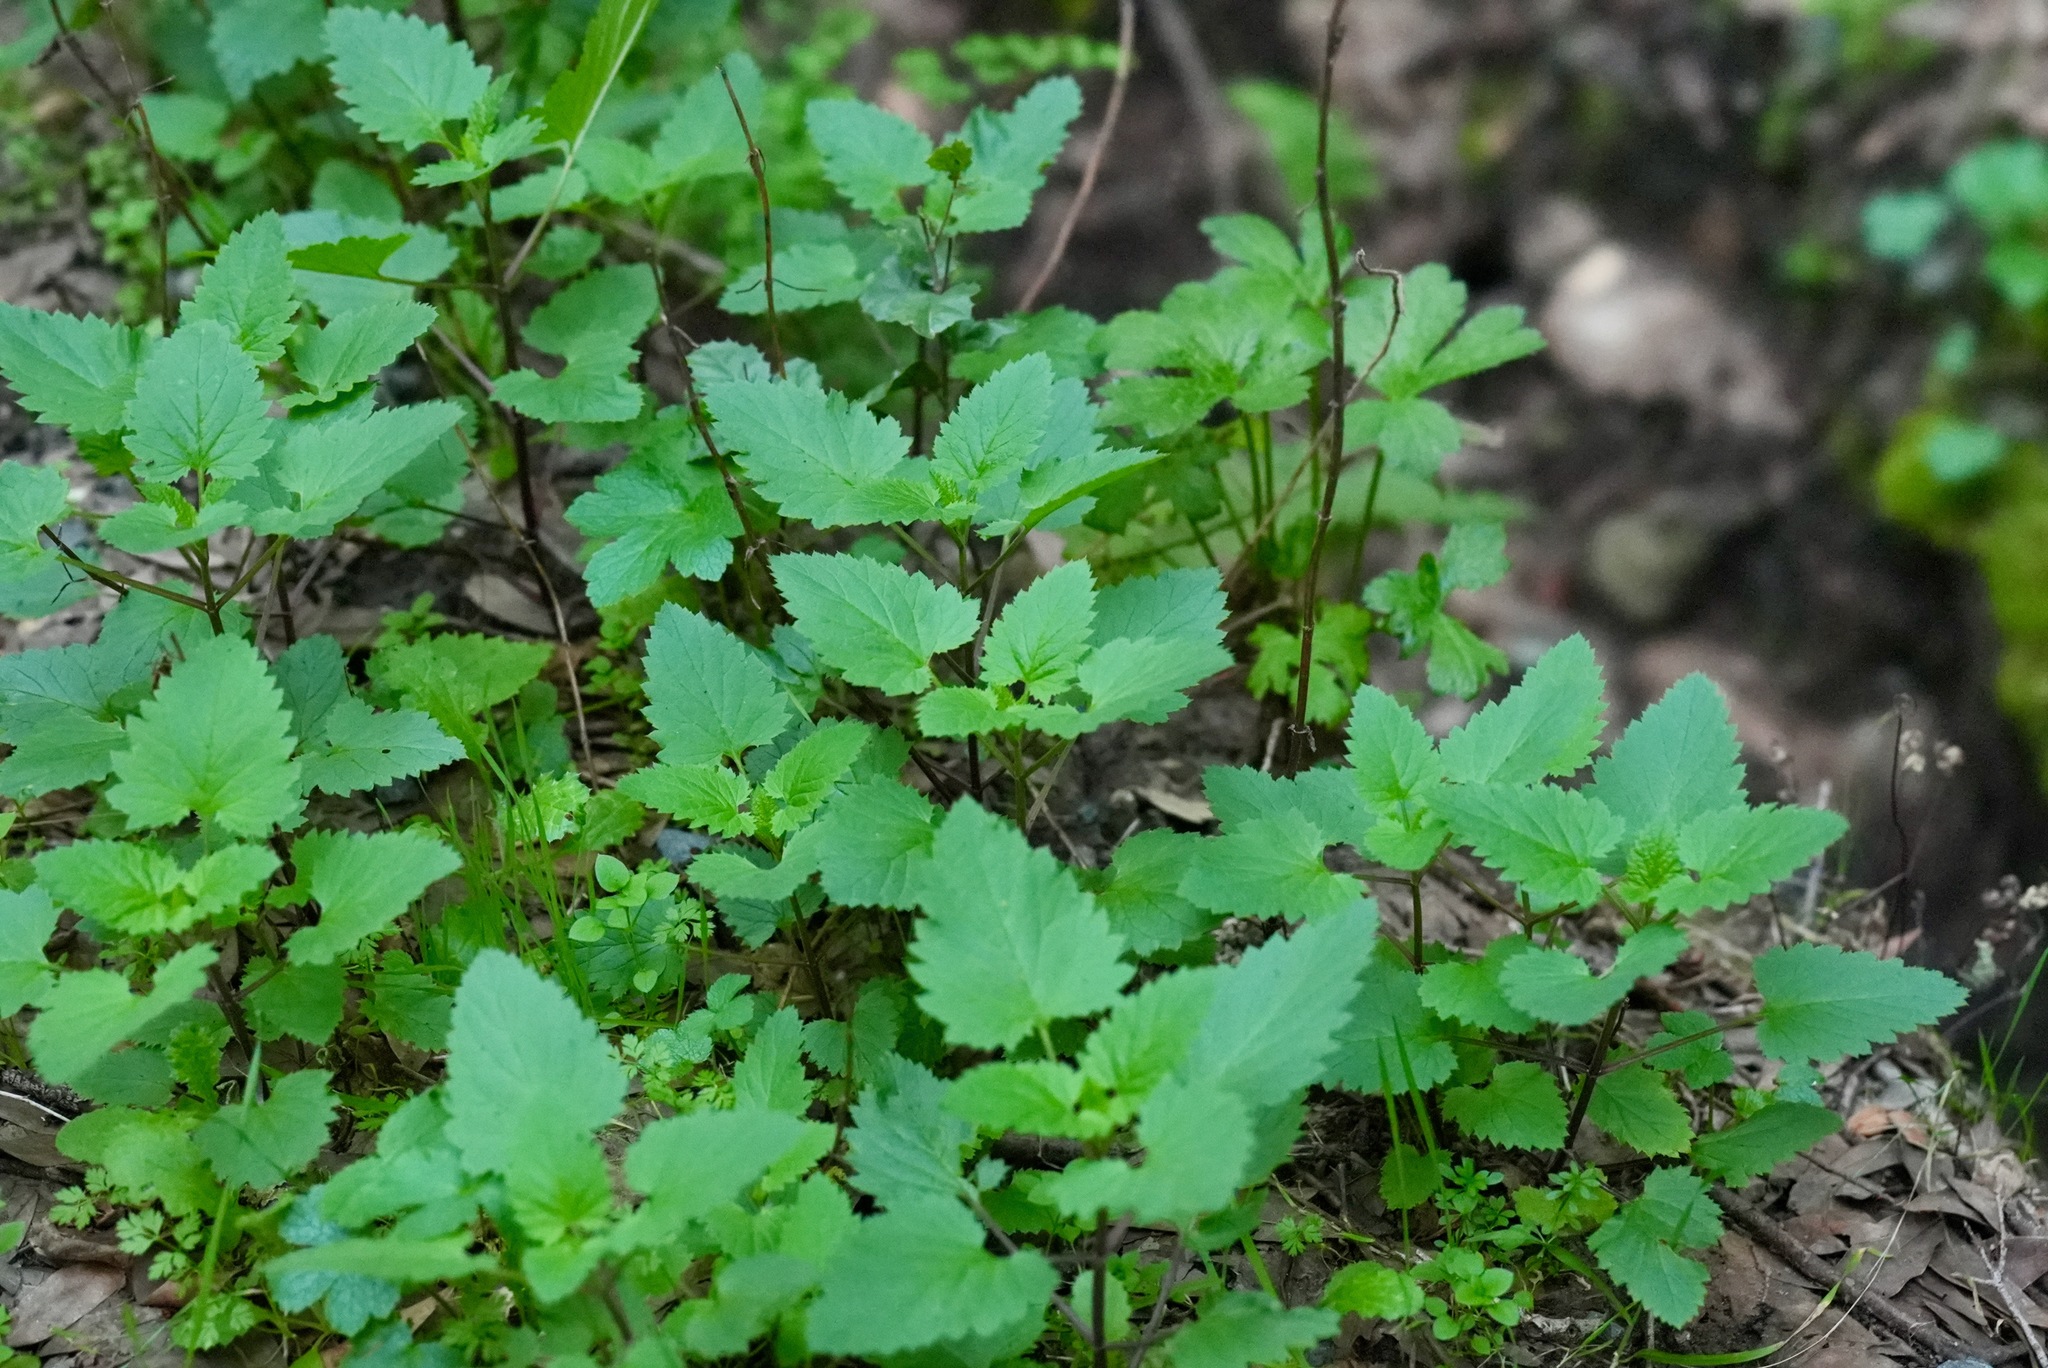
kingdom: Plantae
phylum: Tracheophyta
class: Magnoliopsida
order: Lamiales
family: Scrophulariaceae
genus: Scrophularia
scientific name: Scrophularia californica
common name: California figwort
